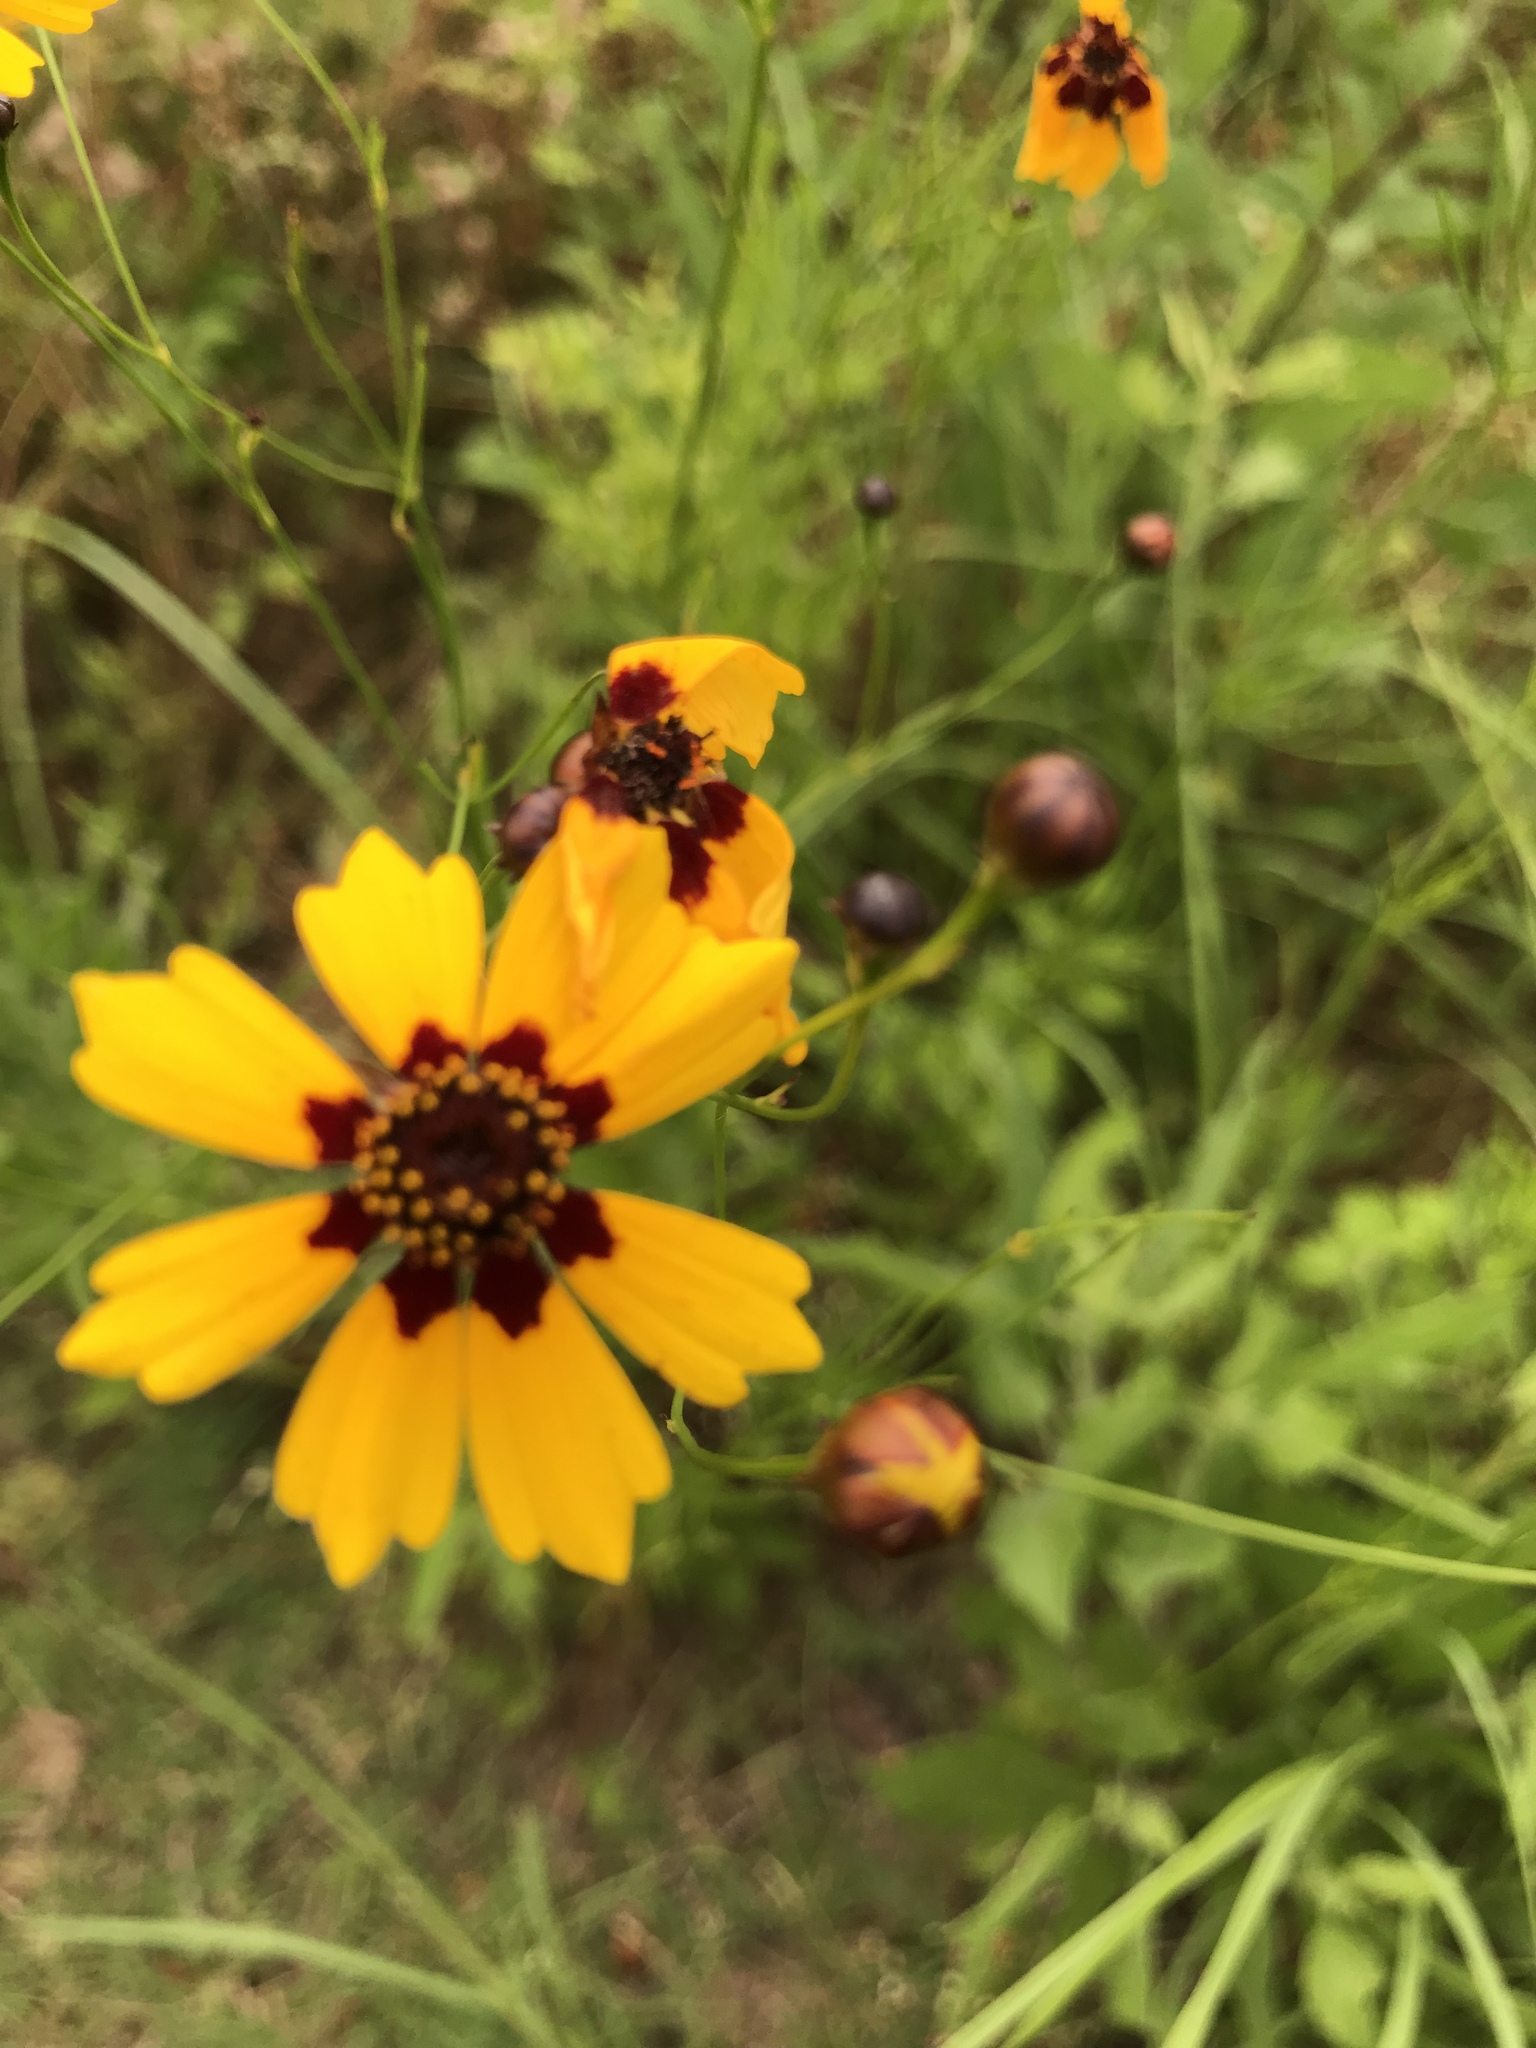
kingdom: Plantae
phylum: Tracheophyta
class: Magnoliopsida
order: Asterales
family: Asteraceae
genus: Coreopsis
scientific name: Coreopsis tinctoria
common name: Garden tickseed
